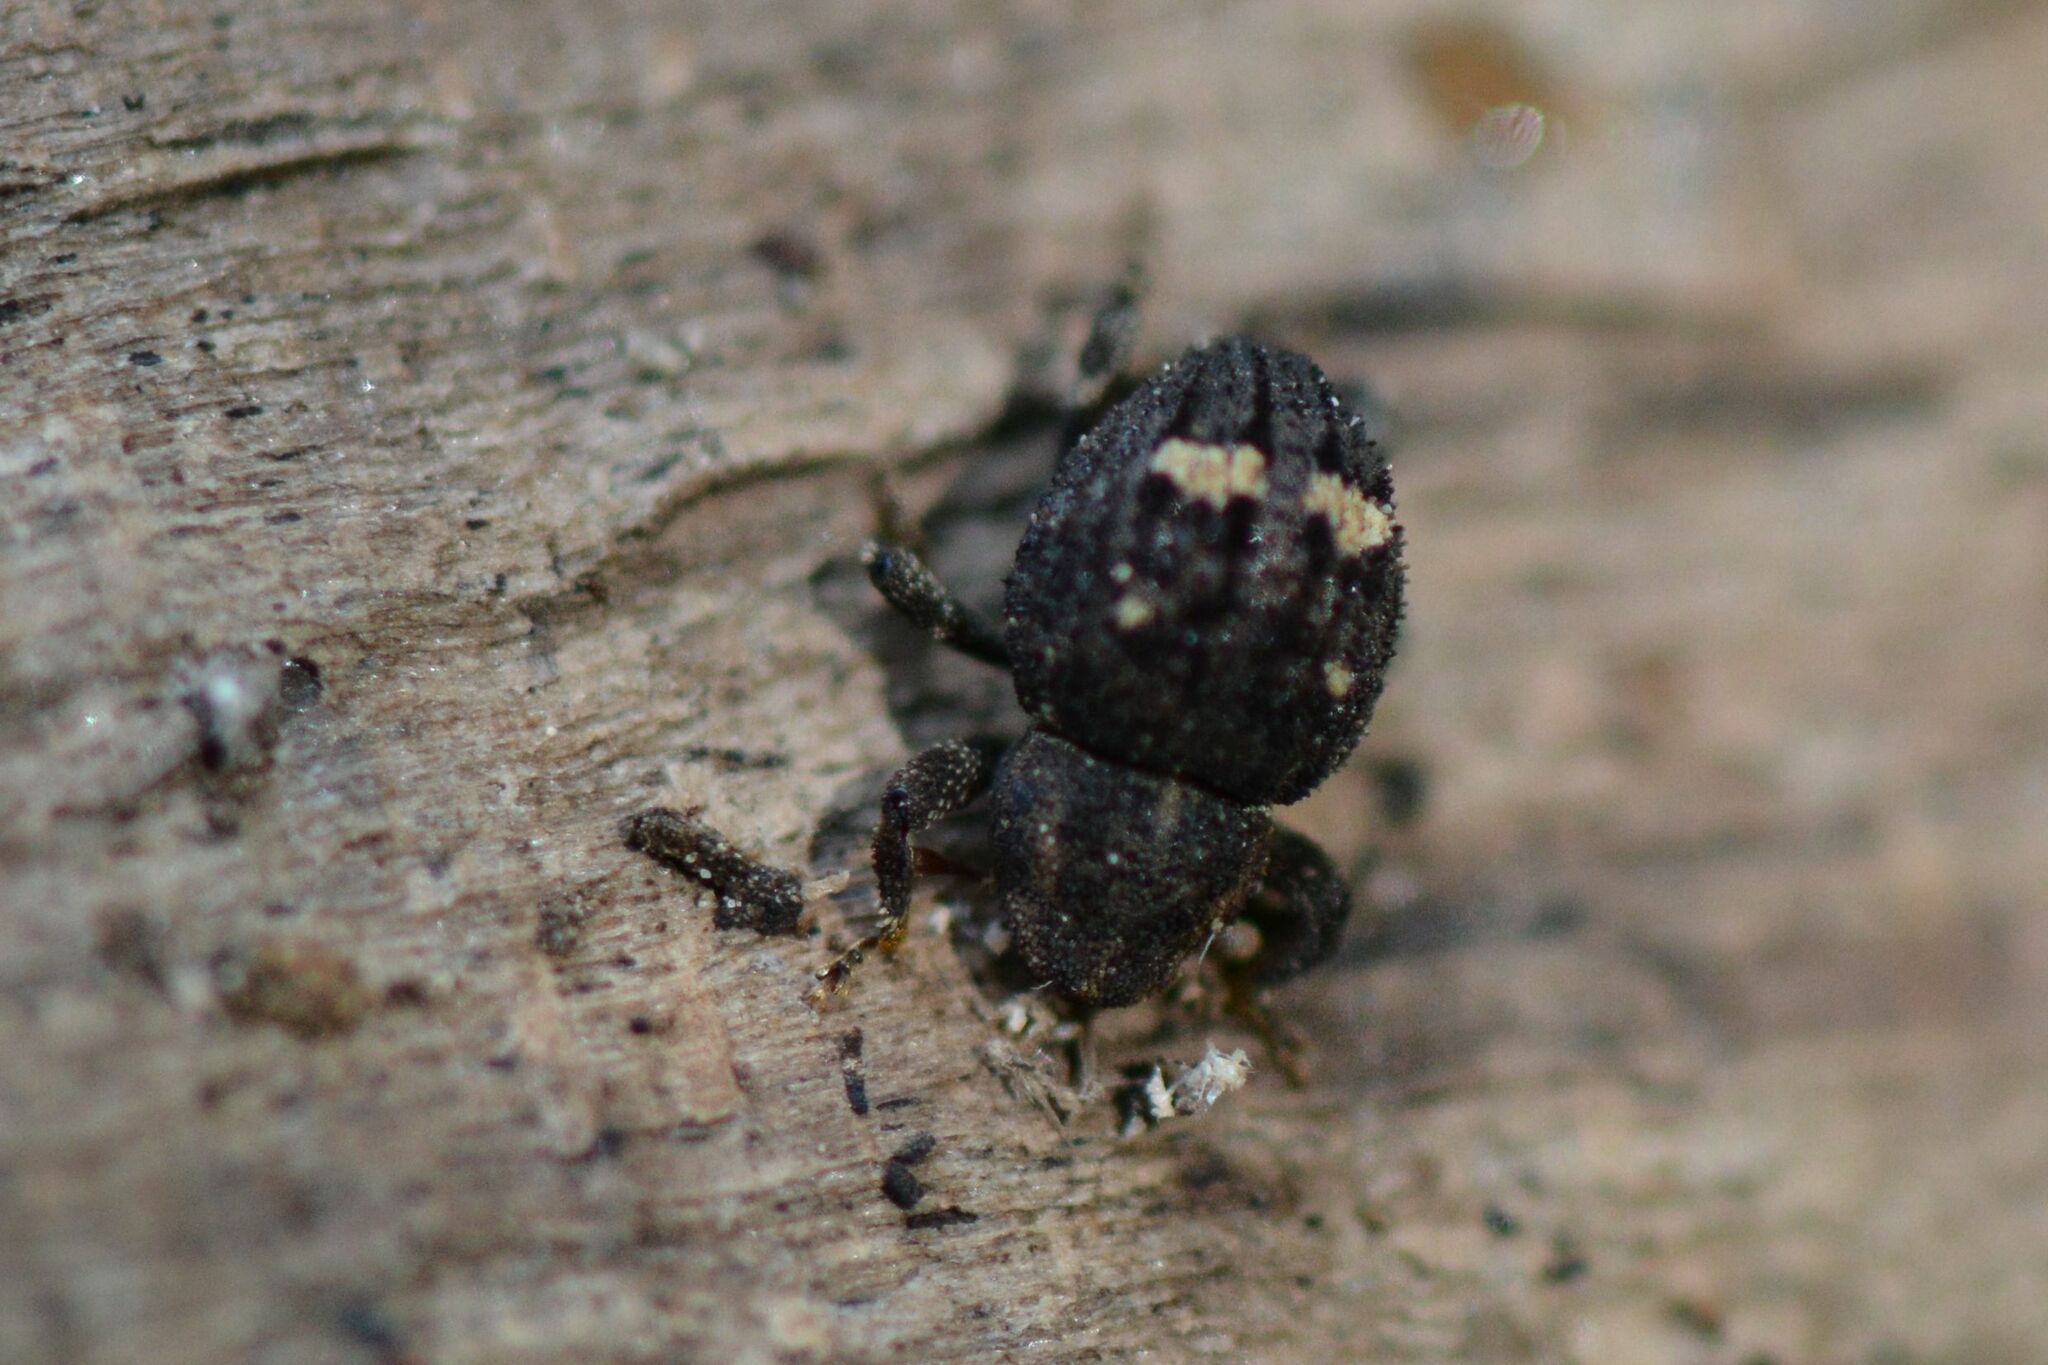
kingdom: Animalia
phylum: Arthropoda
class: Insecta
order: Coleoptera
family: Curculionidae
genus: Echinodera
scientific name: Echinodera hypocrita
